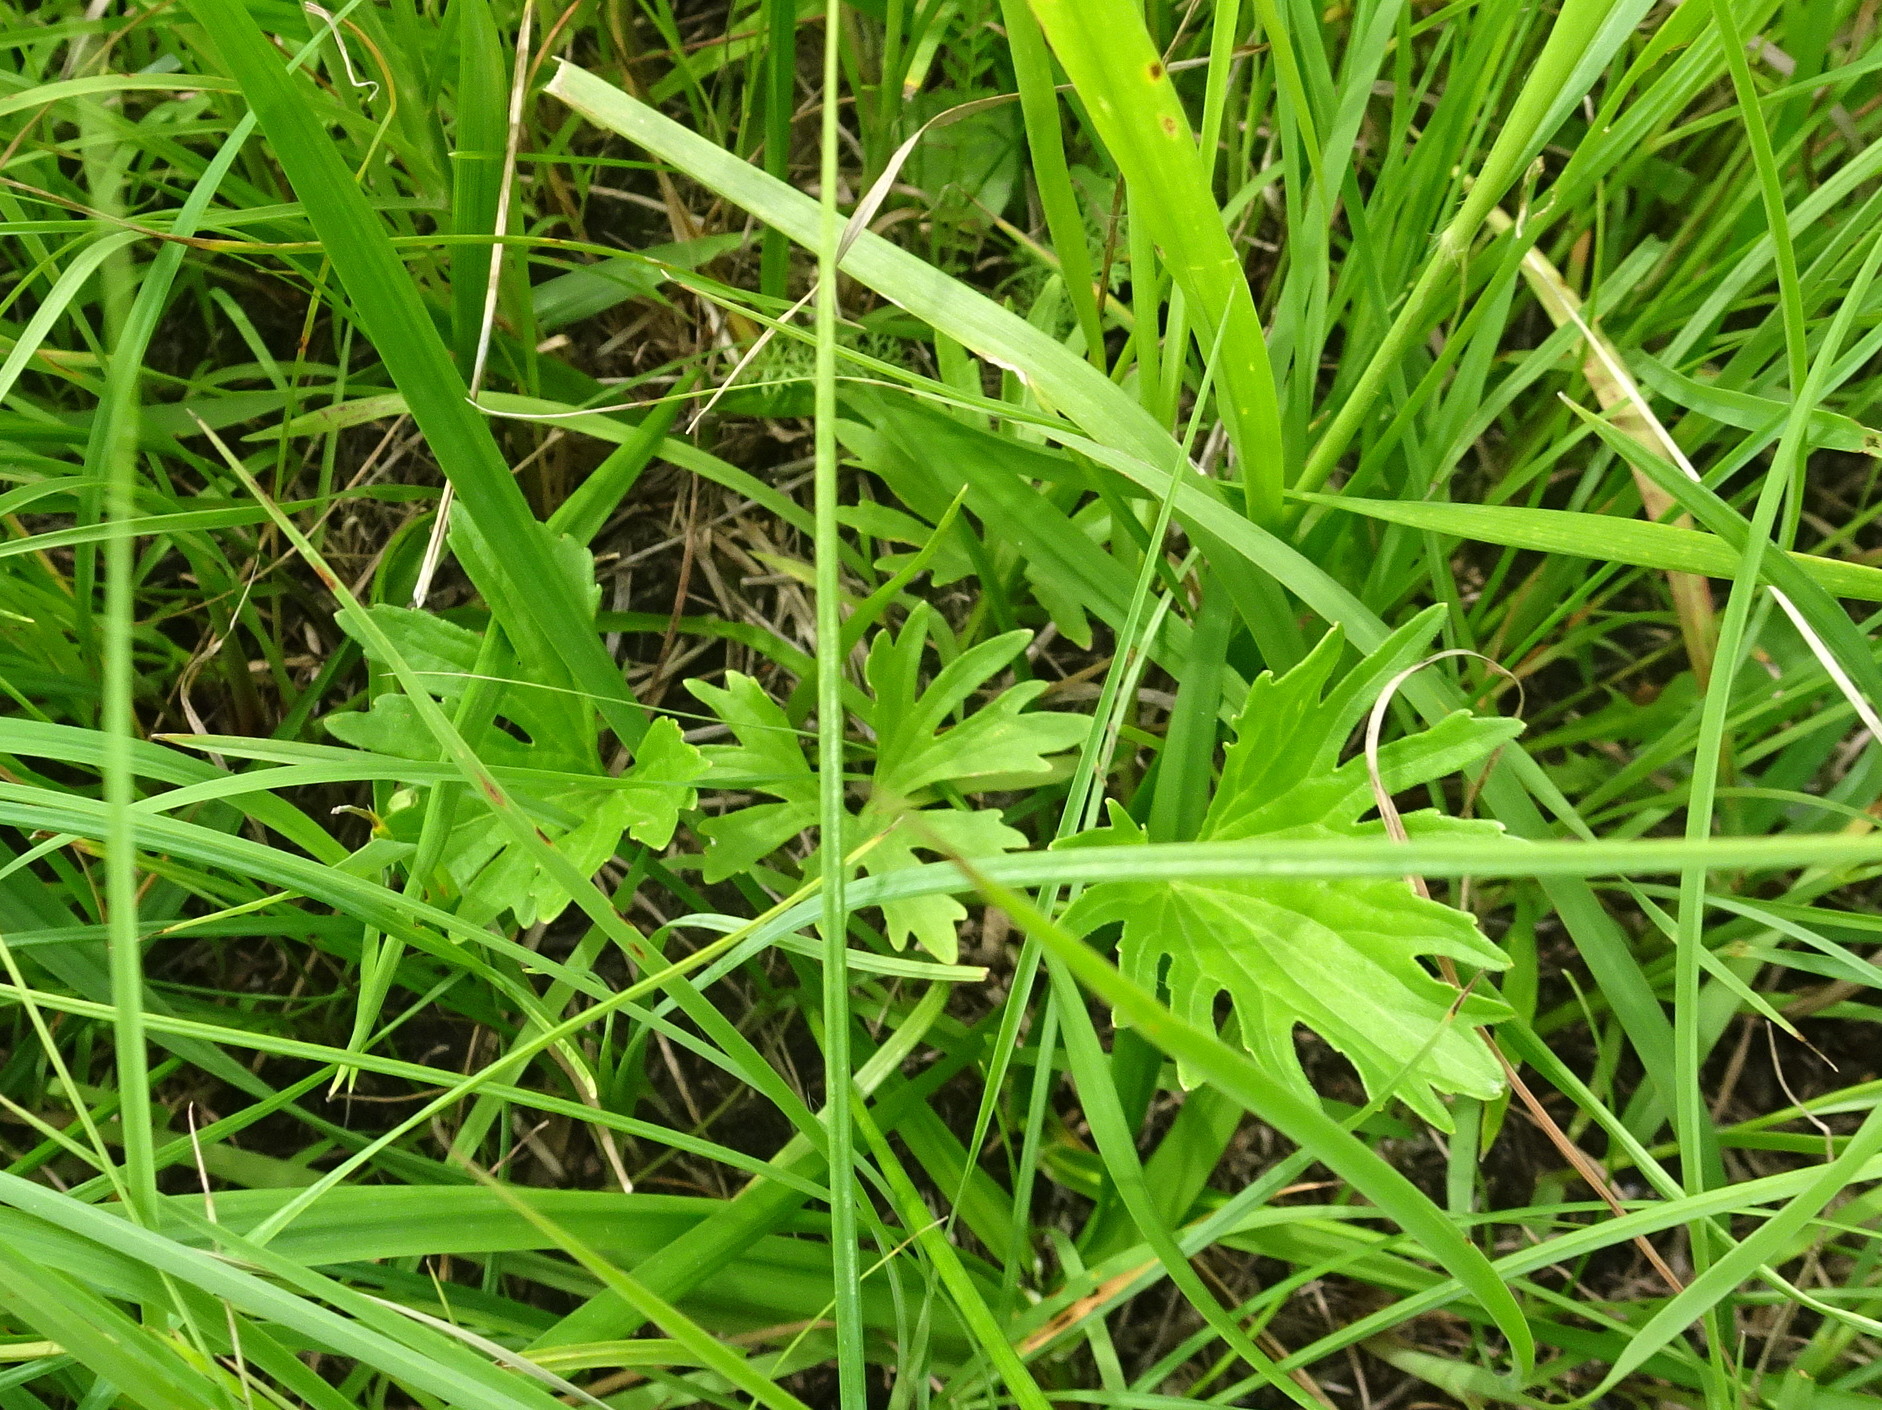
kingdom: Plantae
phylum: Tracheophyta
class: Magnoliopsida
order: Malpighiales
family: Violaceae
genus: Viola
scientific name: Viola pedatifida
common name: Prairie violet
